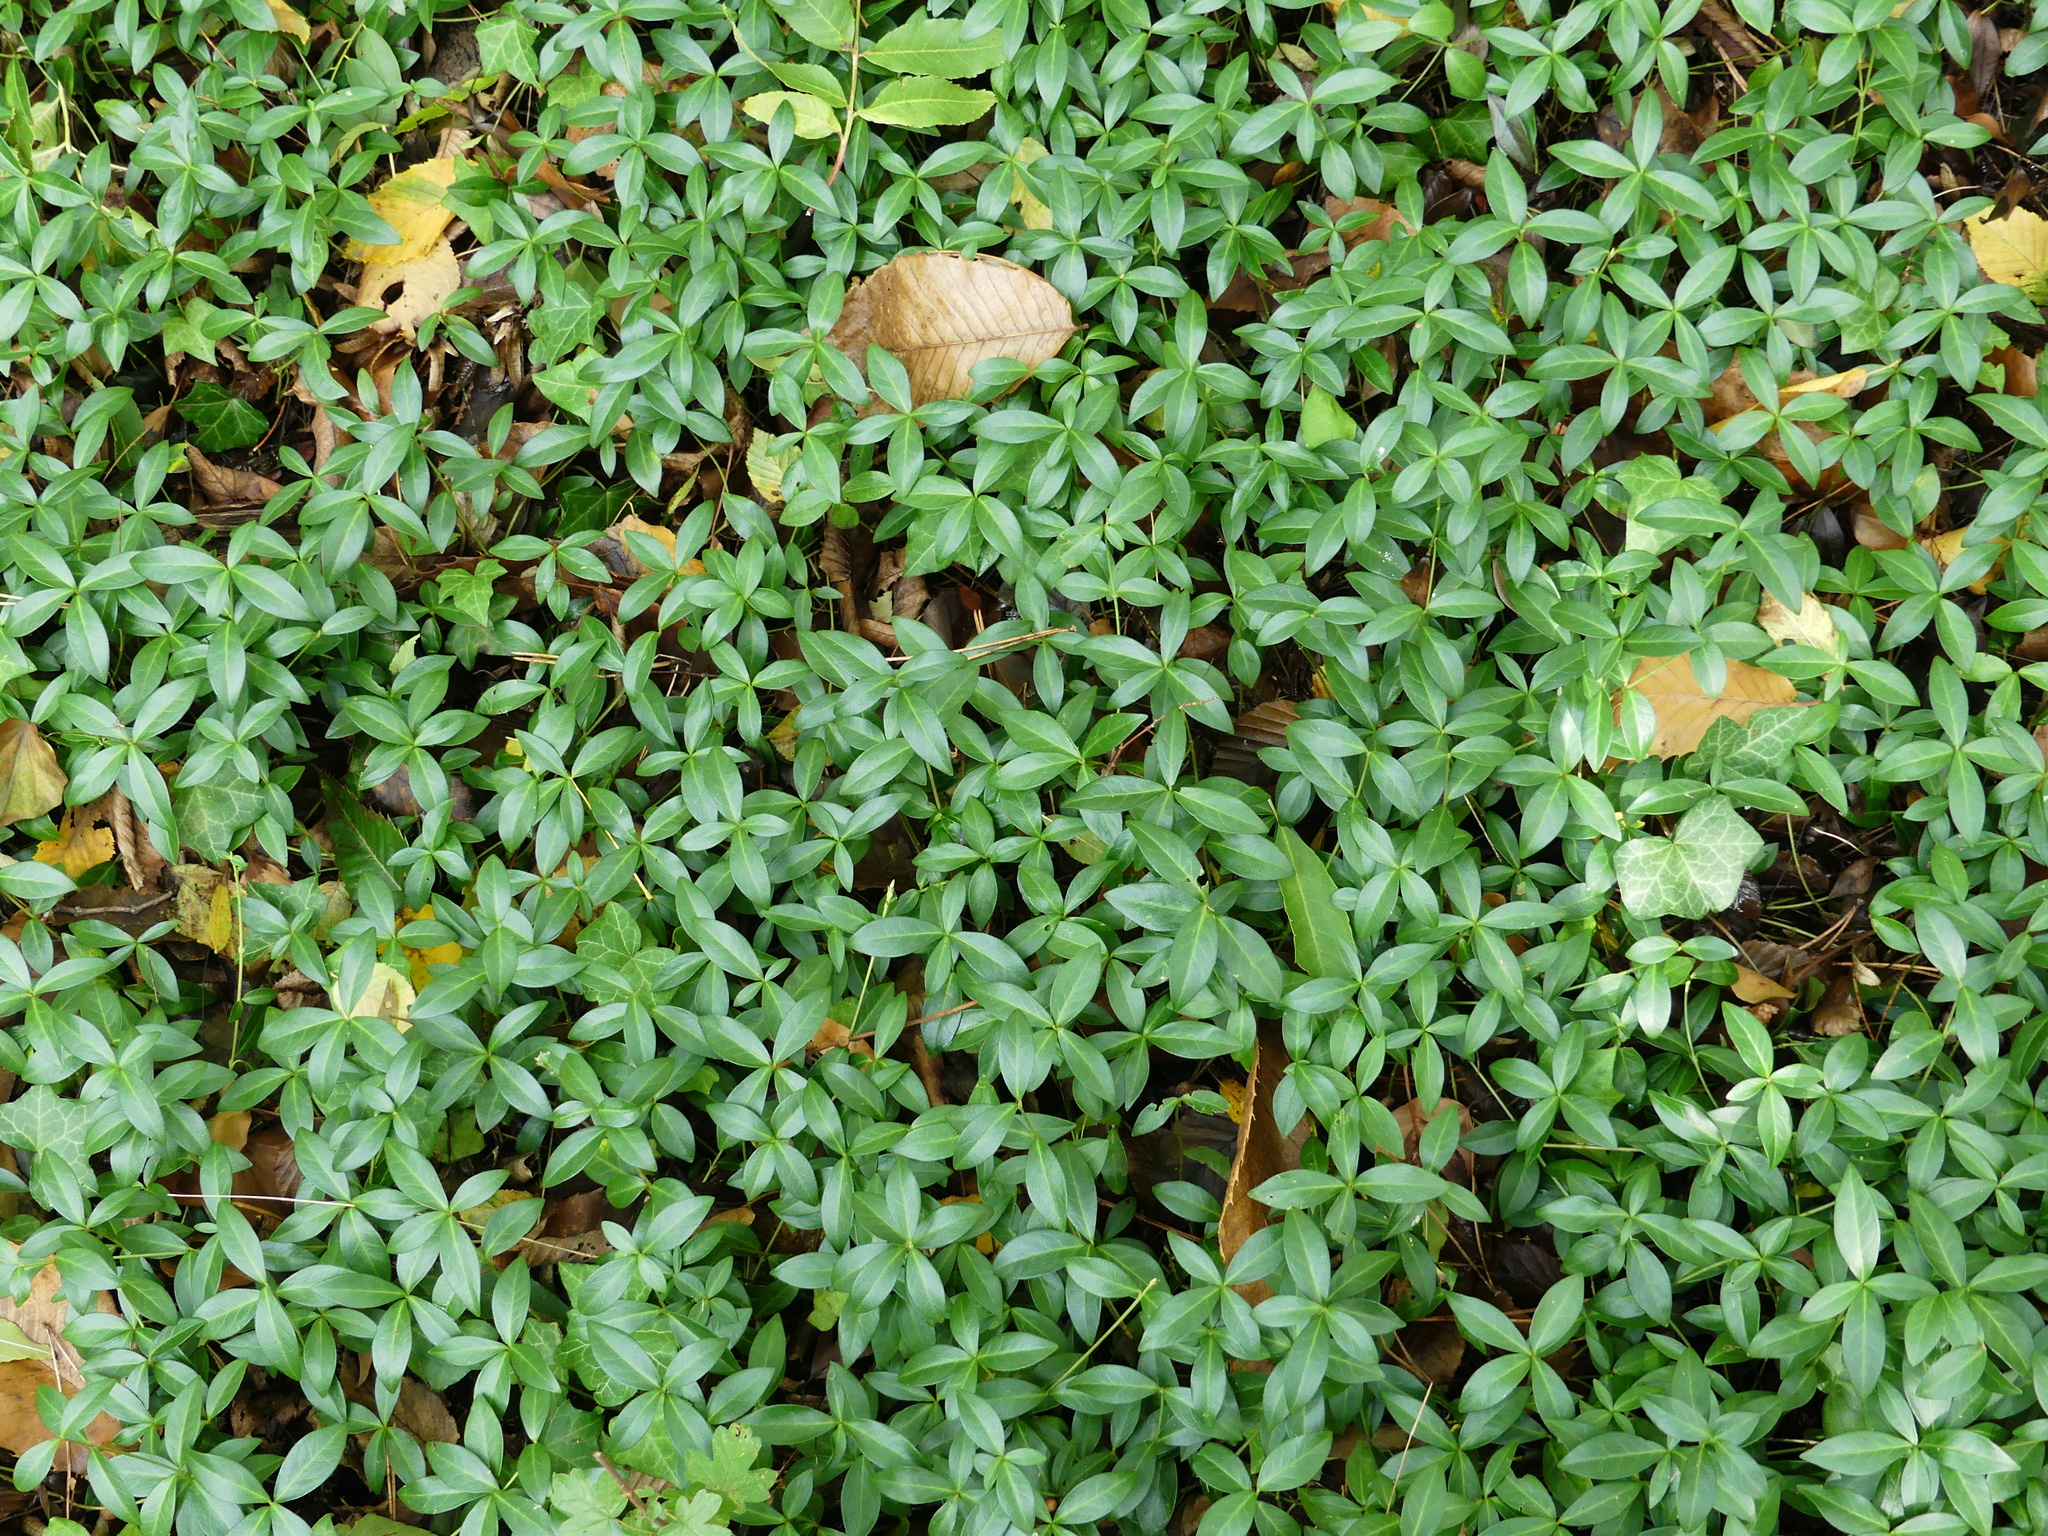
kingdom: Plantae
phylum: Tracheophyta
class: Magnoliopsida
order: Gentianales
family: Apocynaceae
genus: Vinca
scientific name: Vinca minor
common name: Lesser periwinkle
